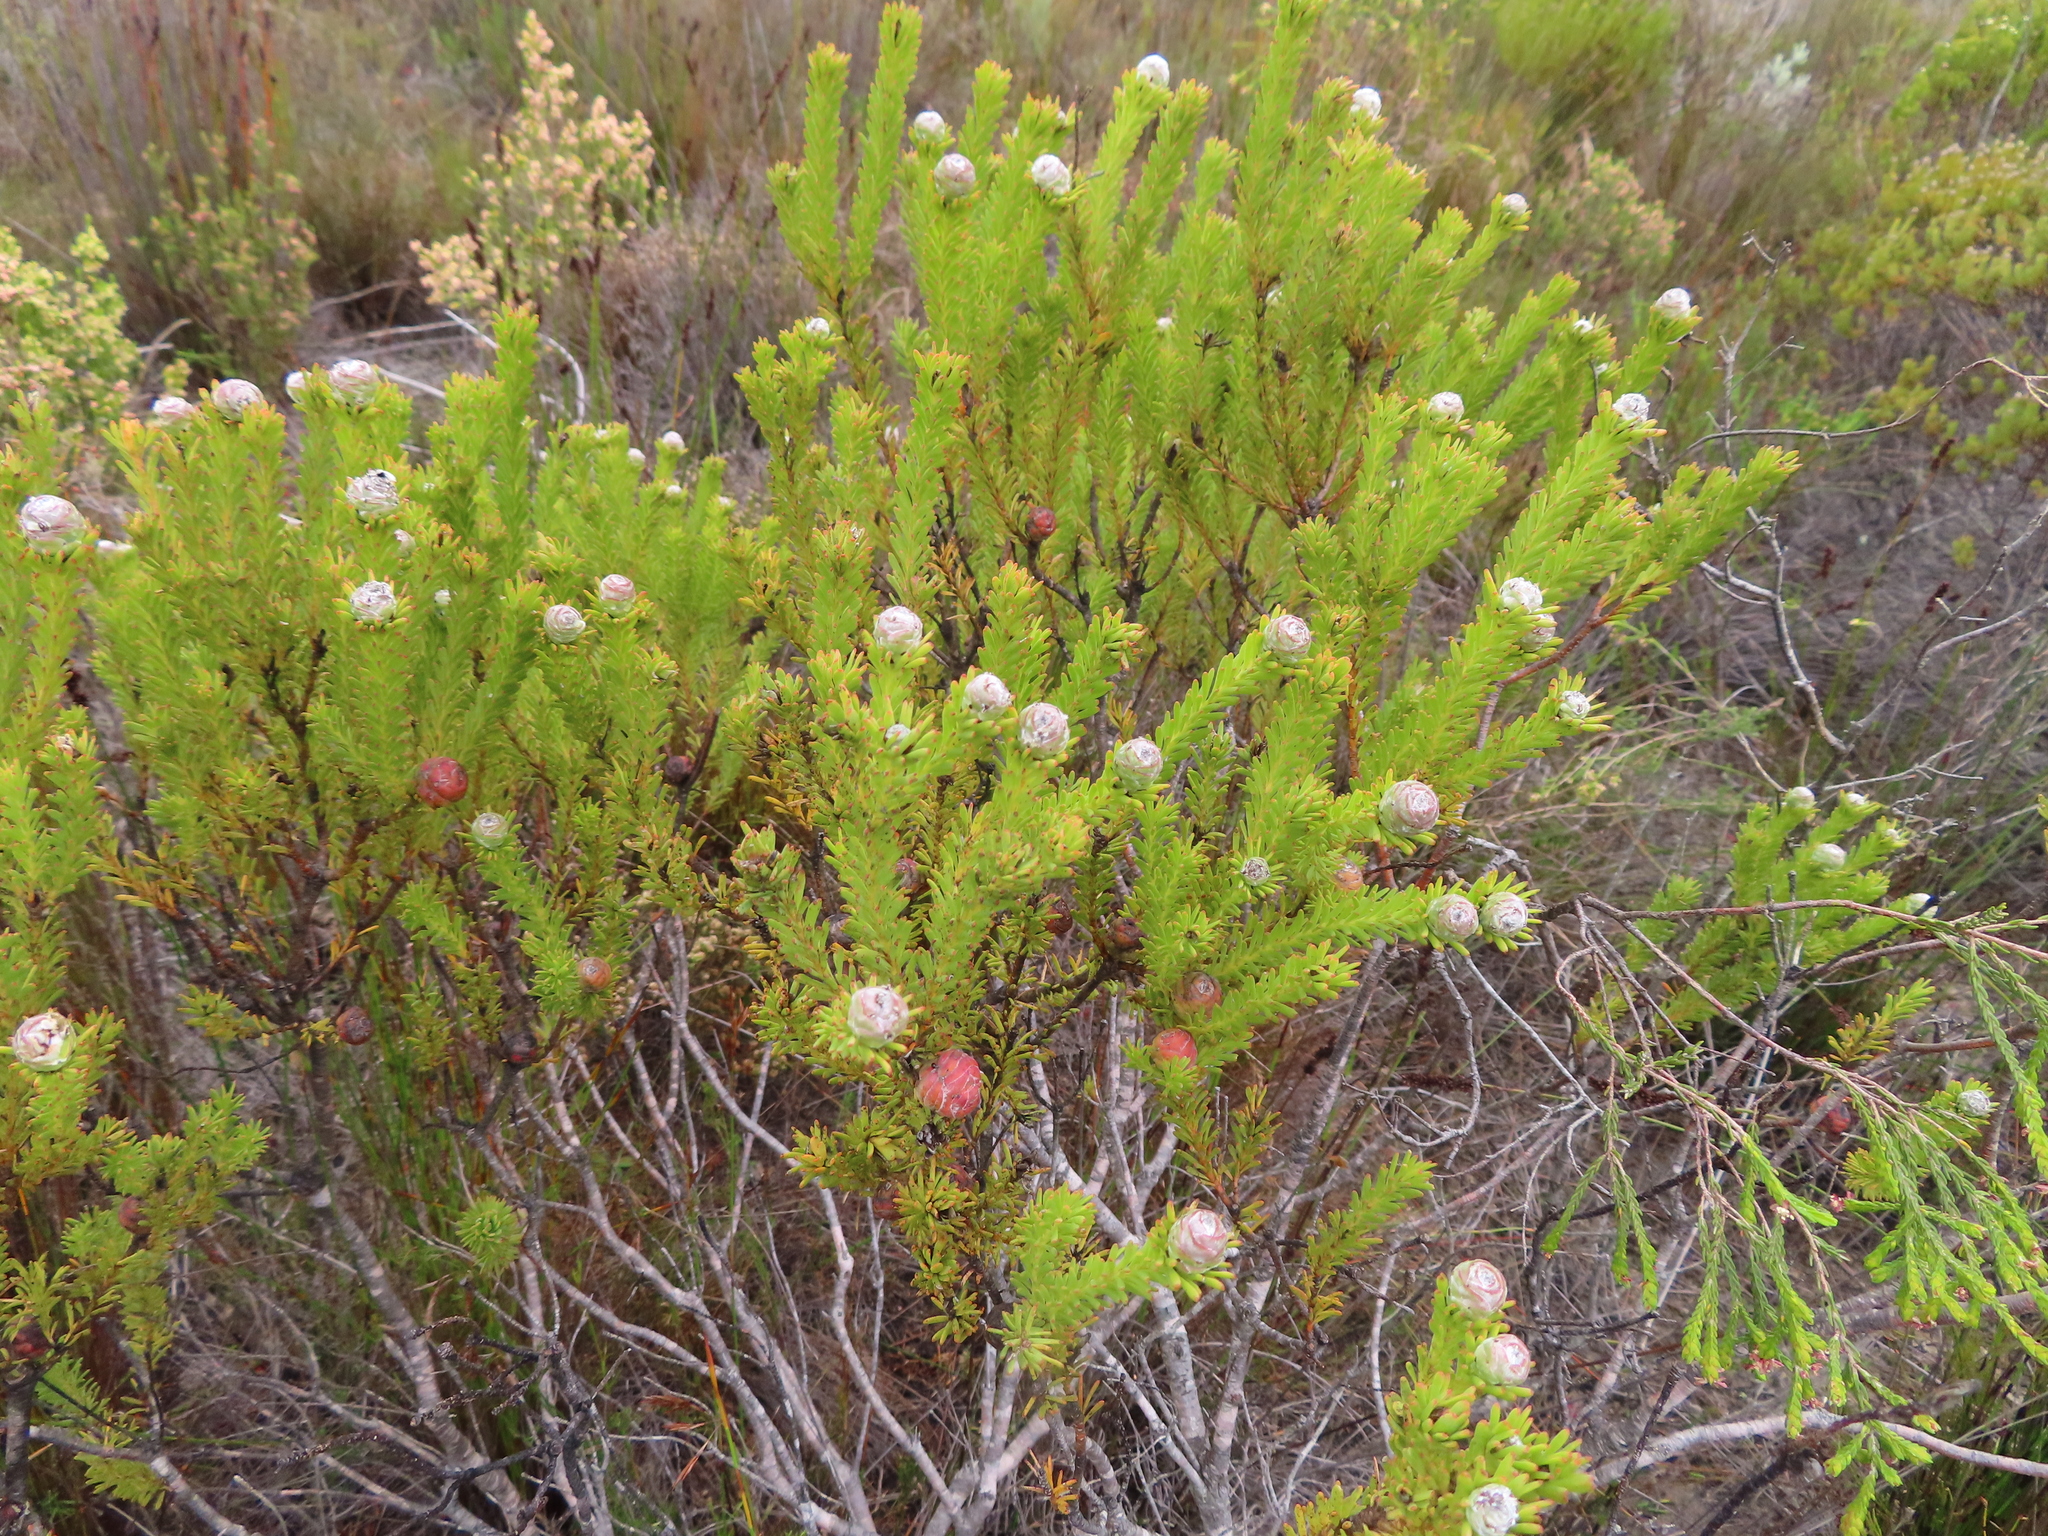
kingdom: Plantae
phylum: Tracheophyta
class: Magnoliopsida
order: Proteales
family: Proteaceae
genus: Leucadendron
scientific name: Leucadendron linifolium
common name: Line-leaf conebush
